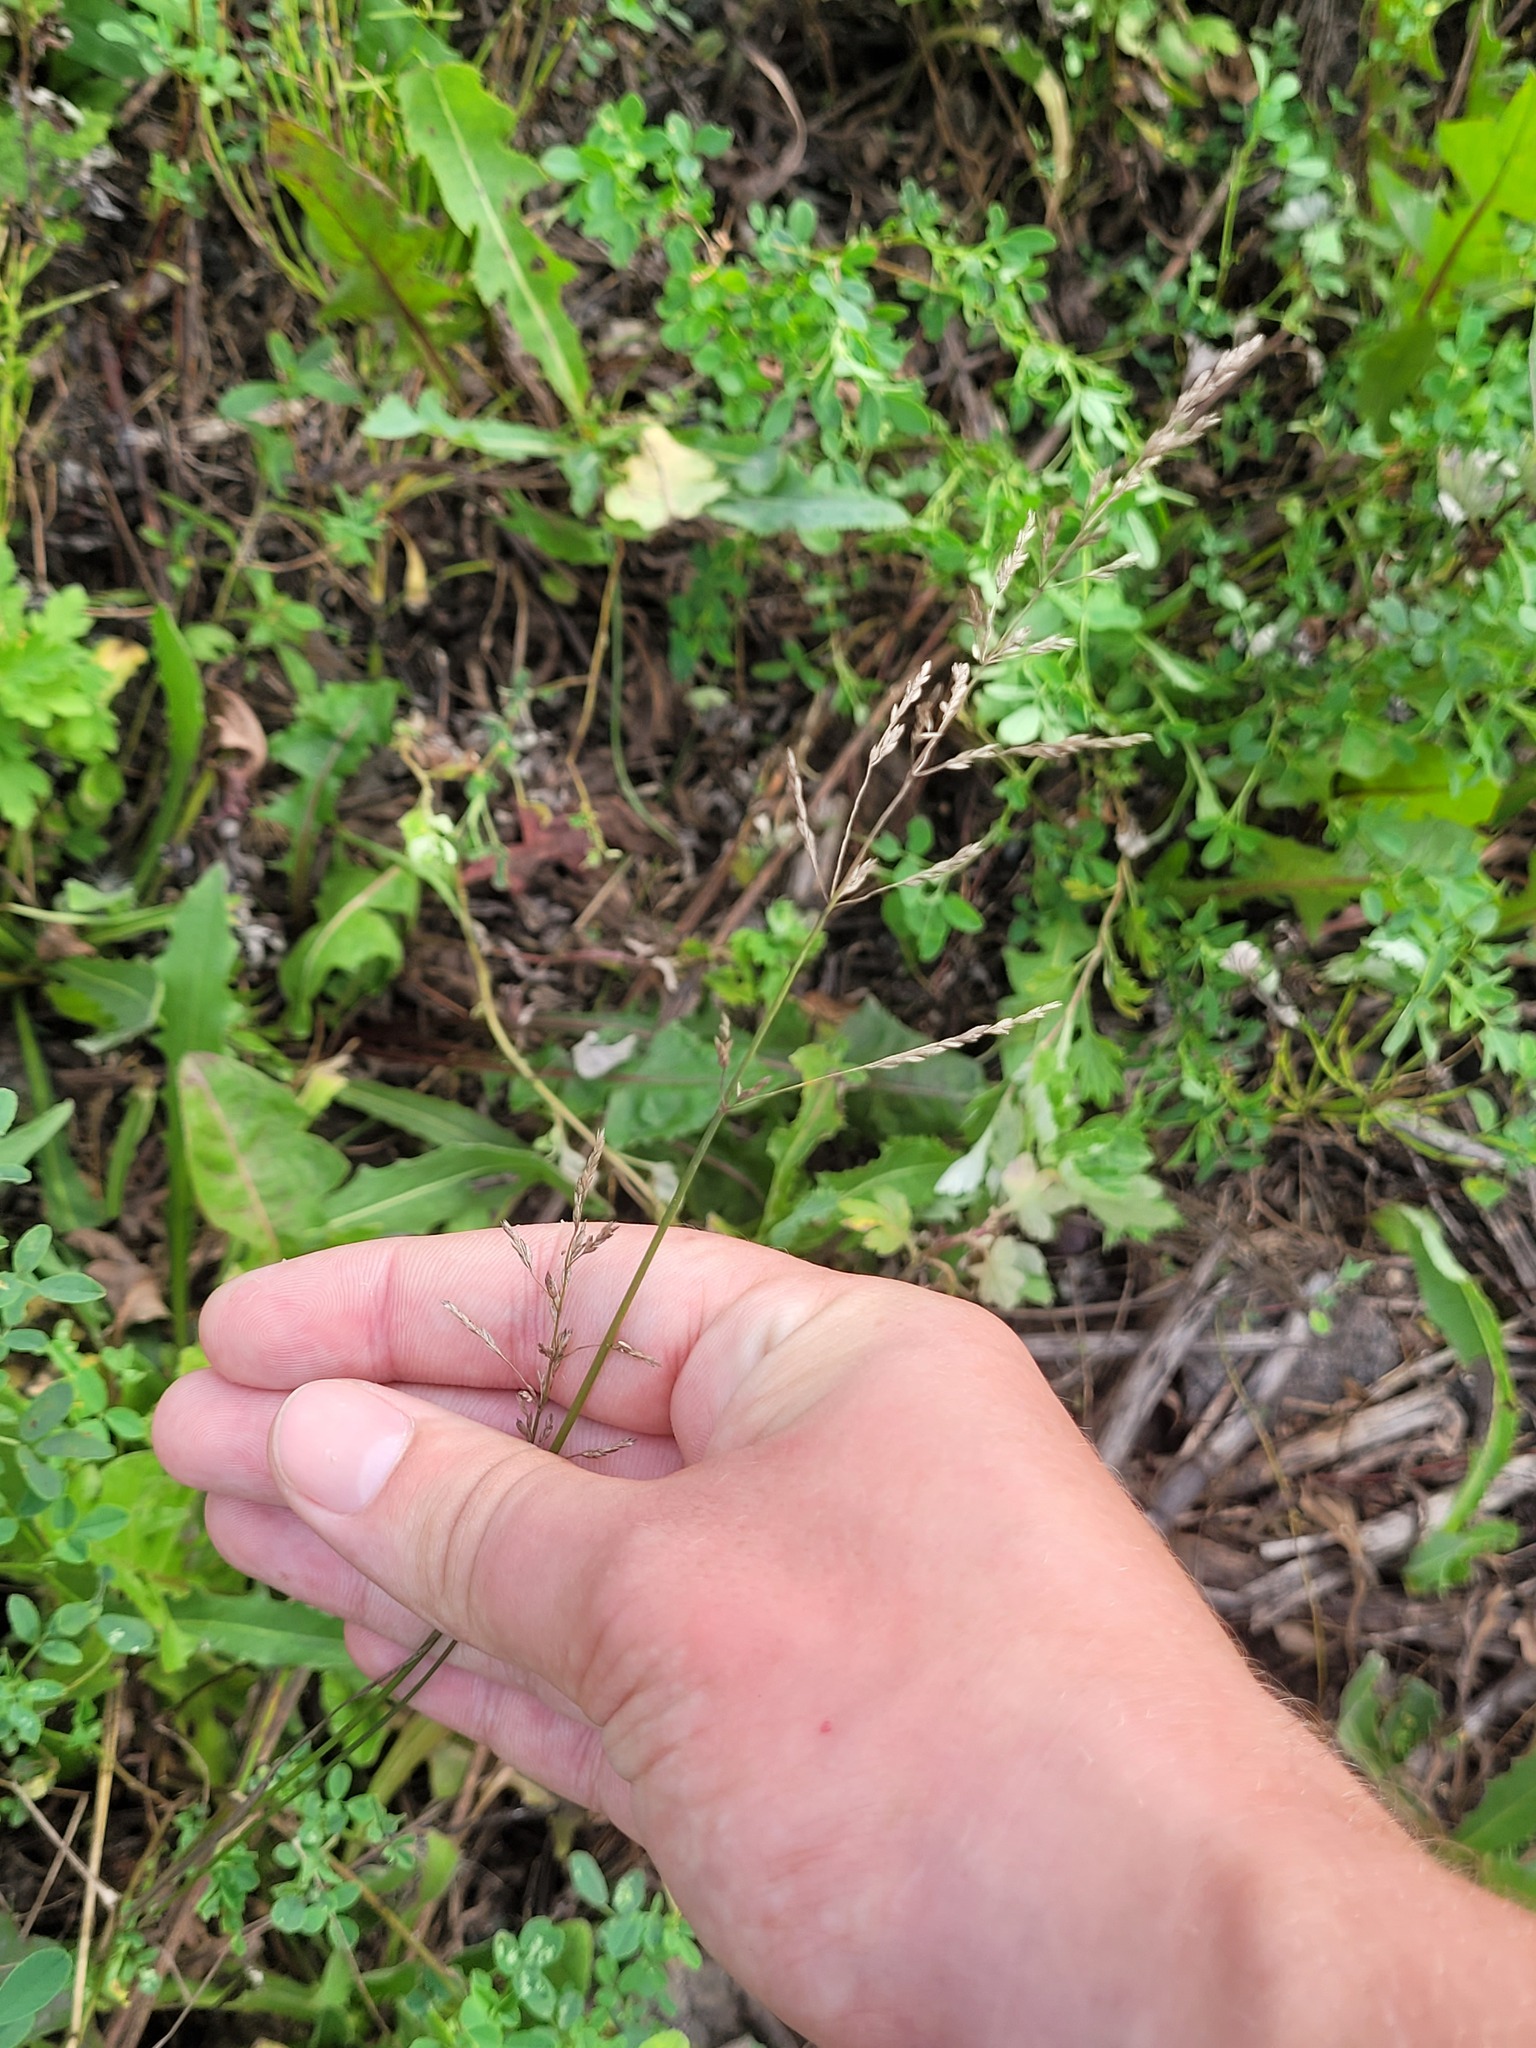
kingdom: Plantae
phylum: Tracheophyta
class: Liliopsida
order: Poales
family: Poaceae
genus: Poa
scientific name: Poa palustris
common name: Swamp meadow-grass
